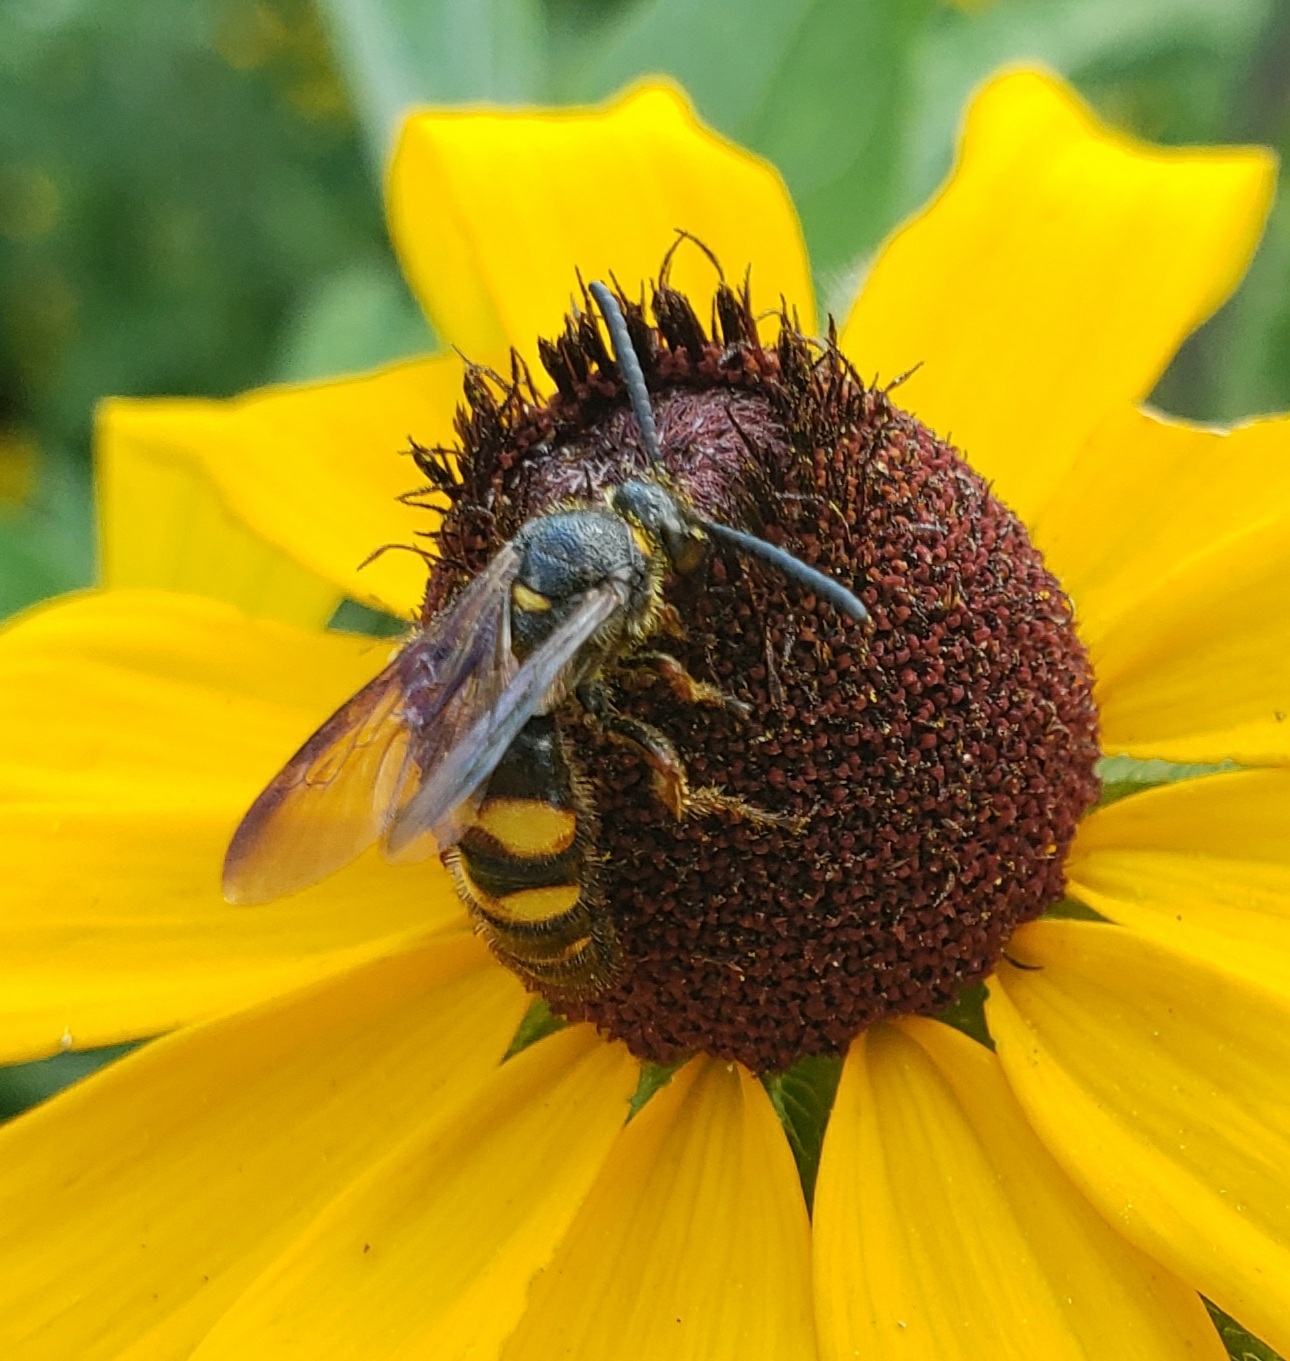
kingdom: Animalia
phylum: Arthropoda
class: Insecta
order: Hymenoptera
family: Scoliidae
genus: Scolia
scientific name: Scolia nobilitata
